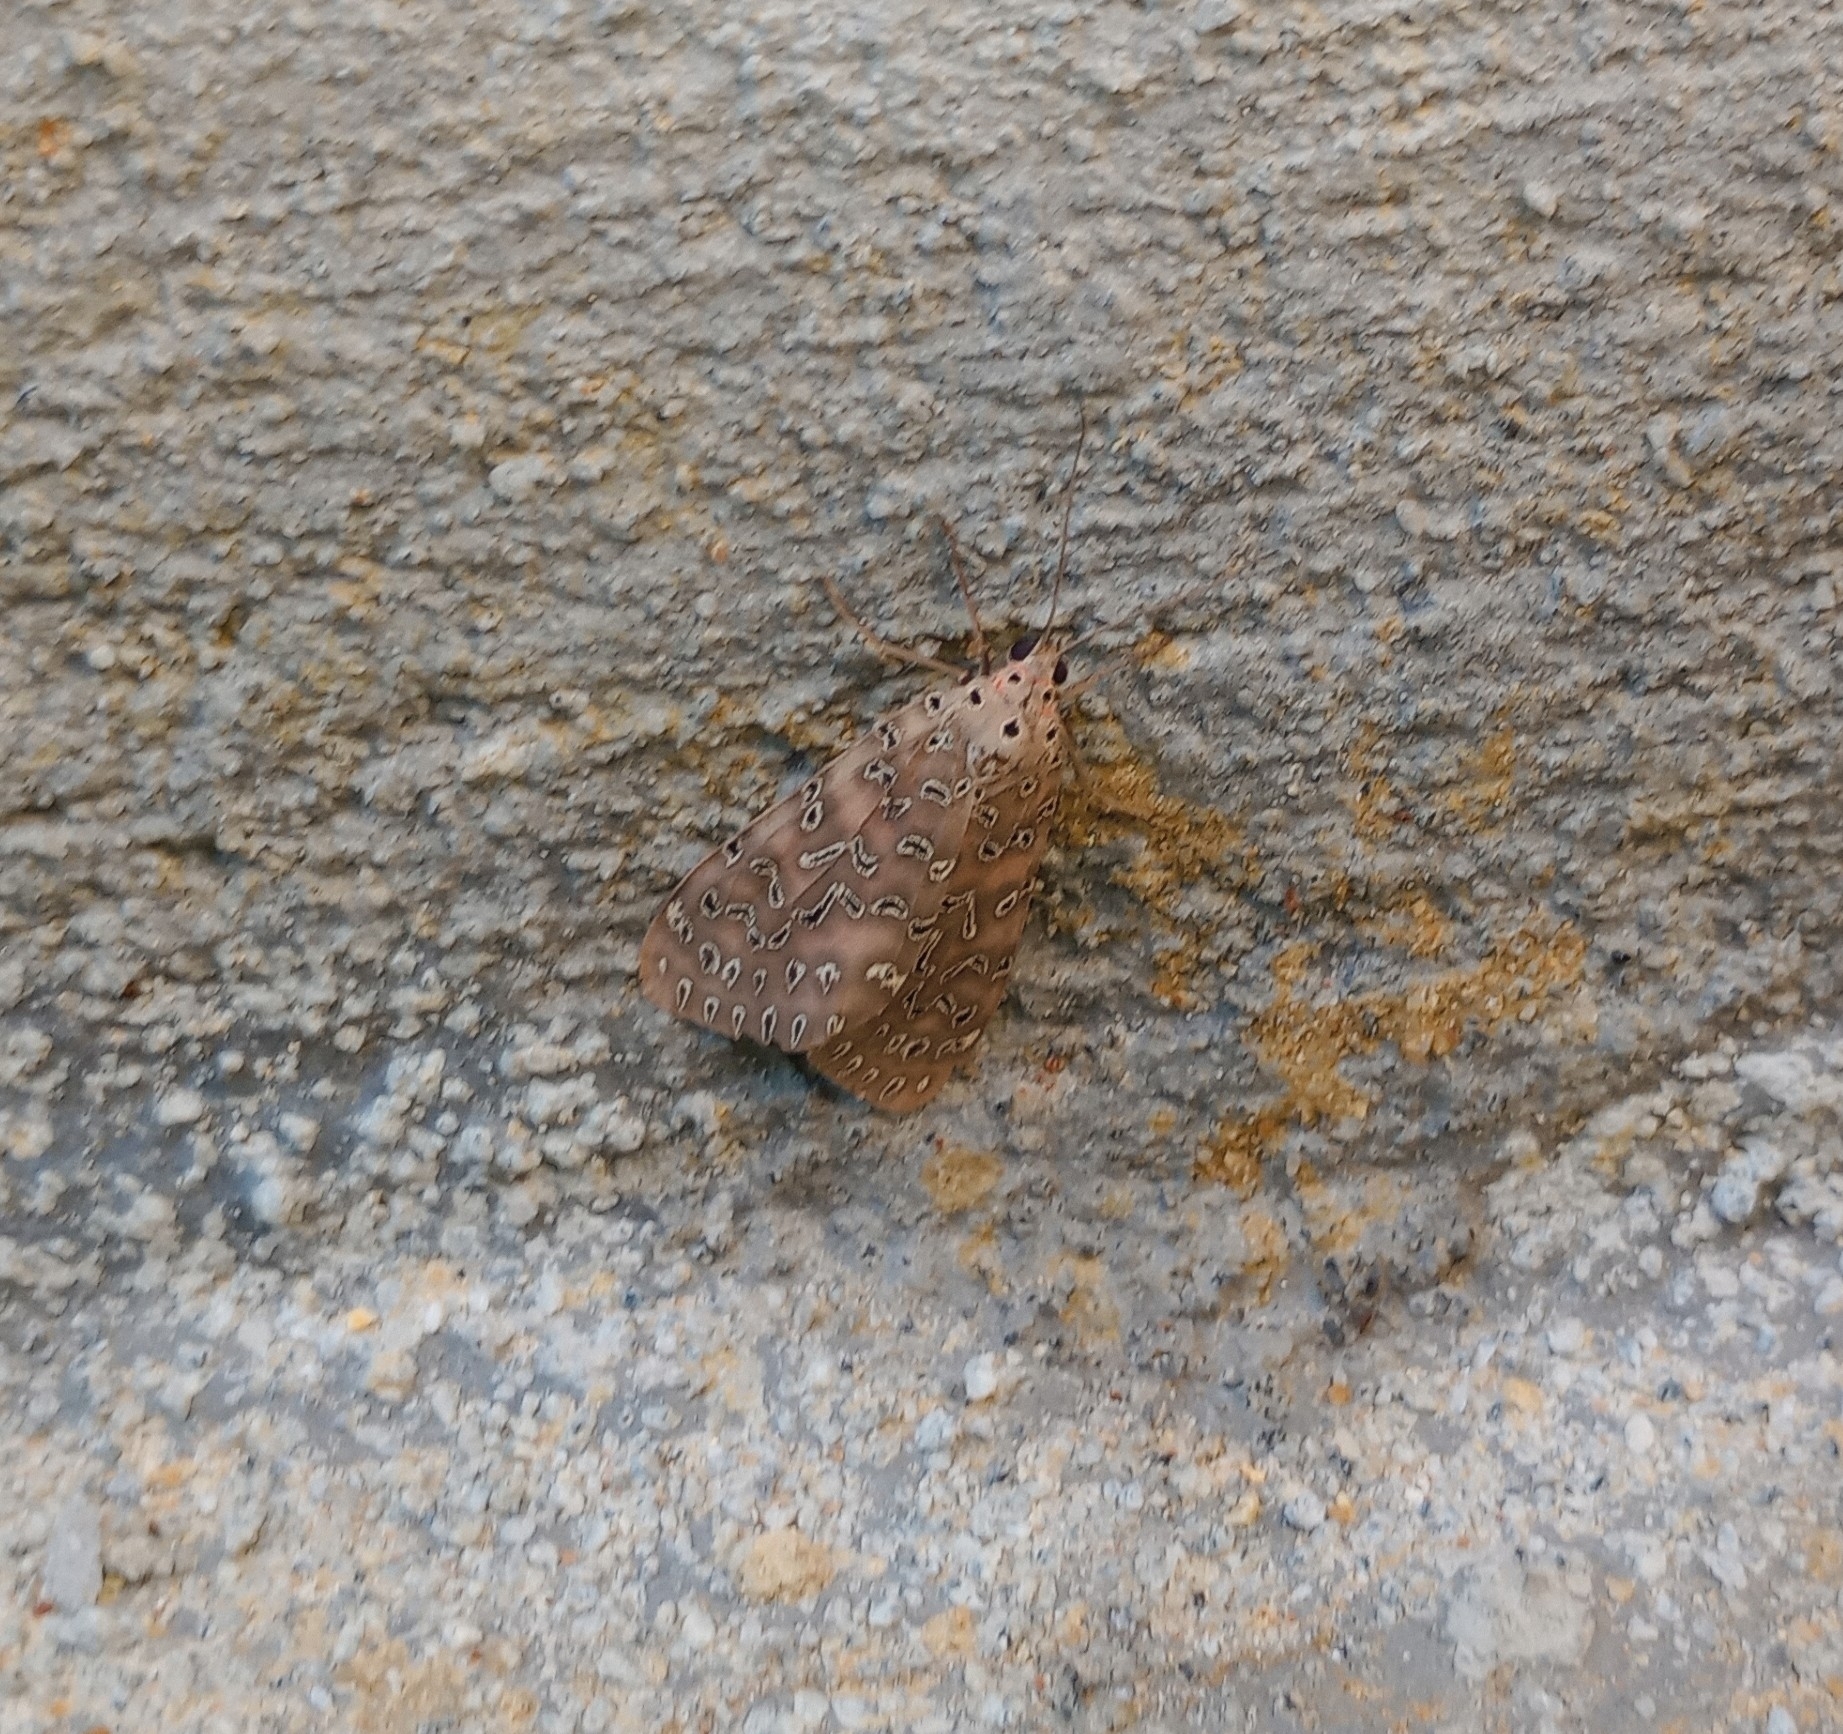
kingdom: Animalia
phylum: Arthropoda
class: Insecta
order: Lepidoptera
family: Erebidae
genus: Mangina
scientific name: Mangina
